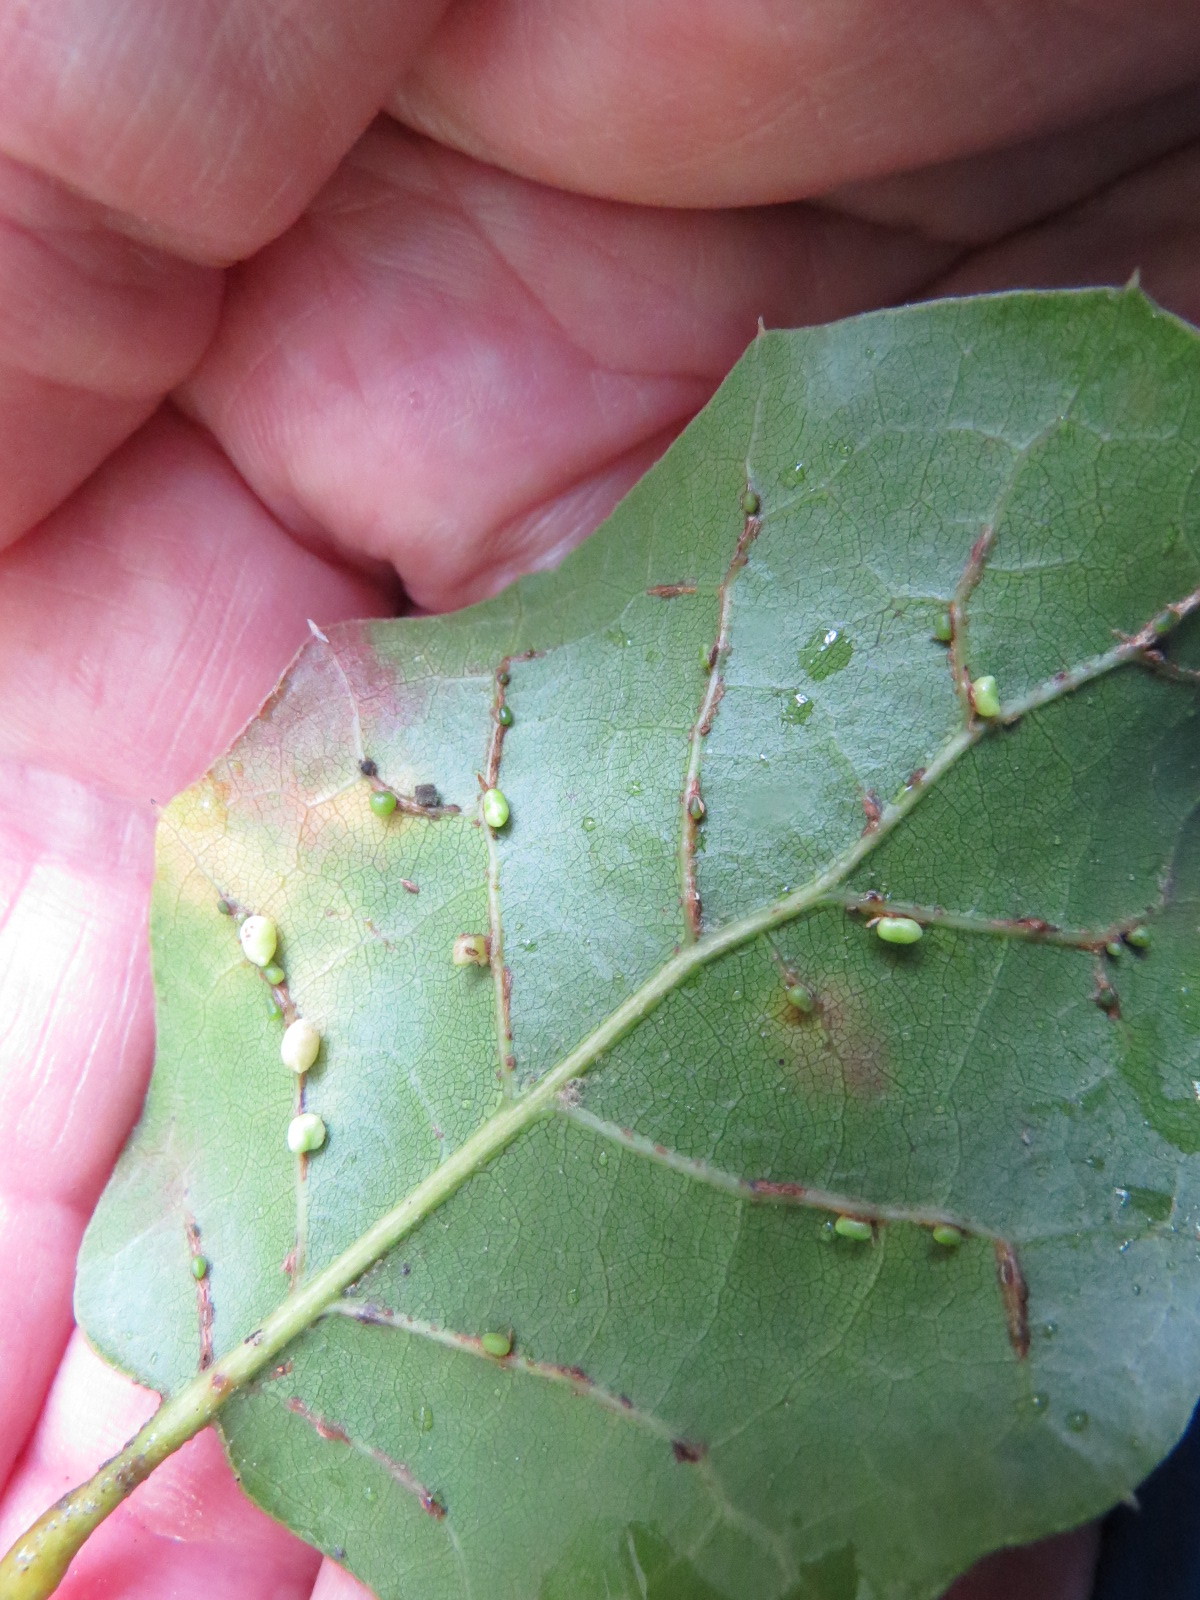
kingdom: Animalia
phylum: Arthropoda
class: Insecta
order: Hymenoptera
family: Cynipidae
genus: Dryocosmus
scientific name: Dryocosmus
